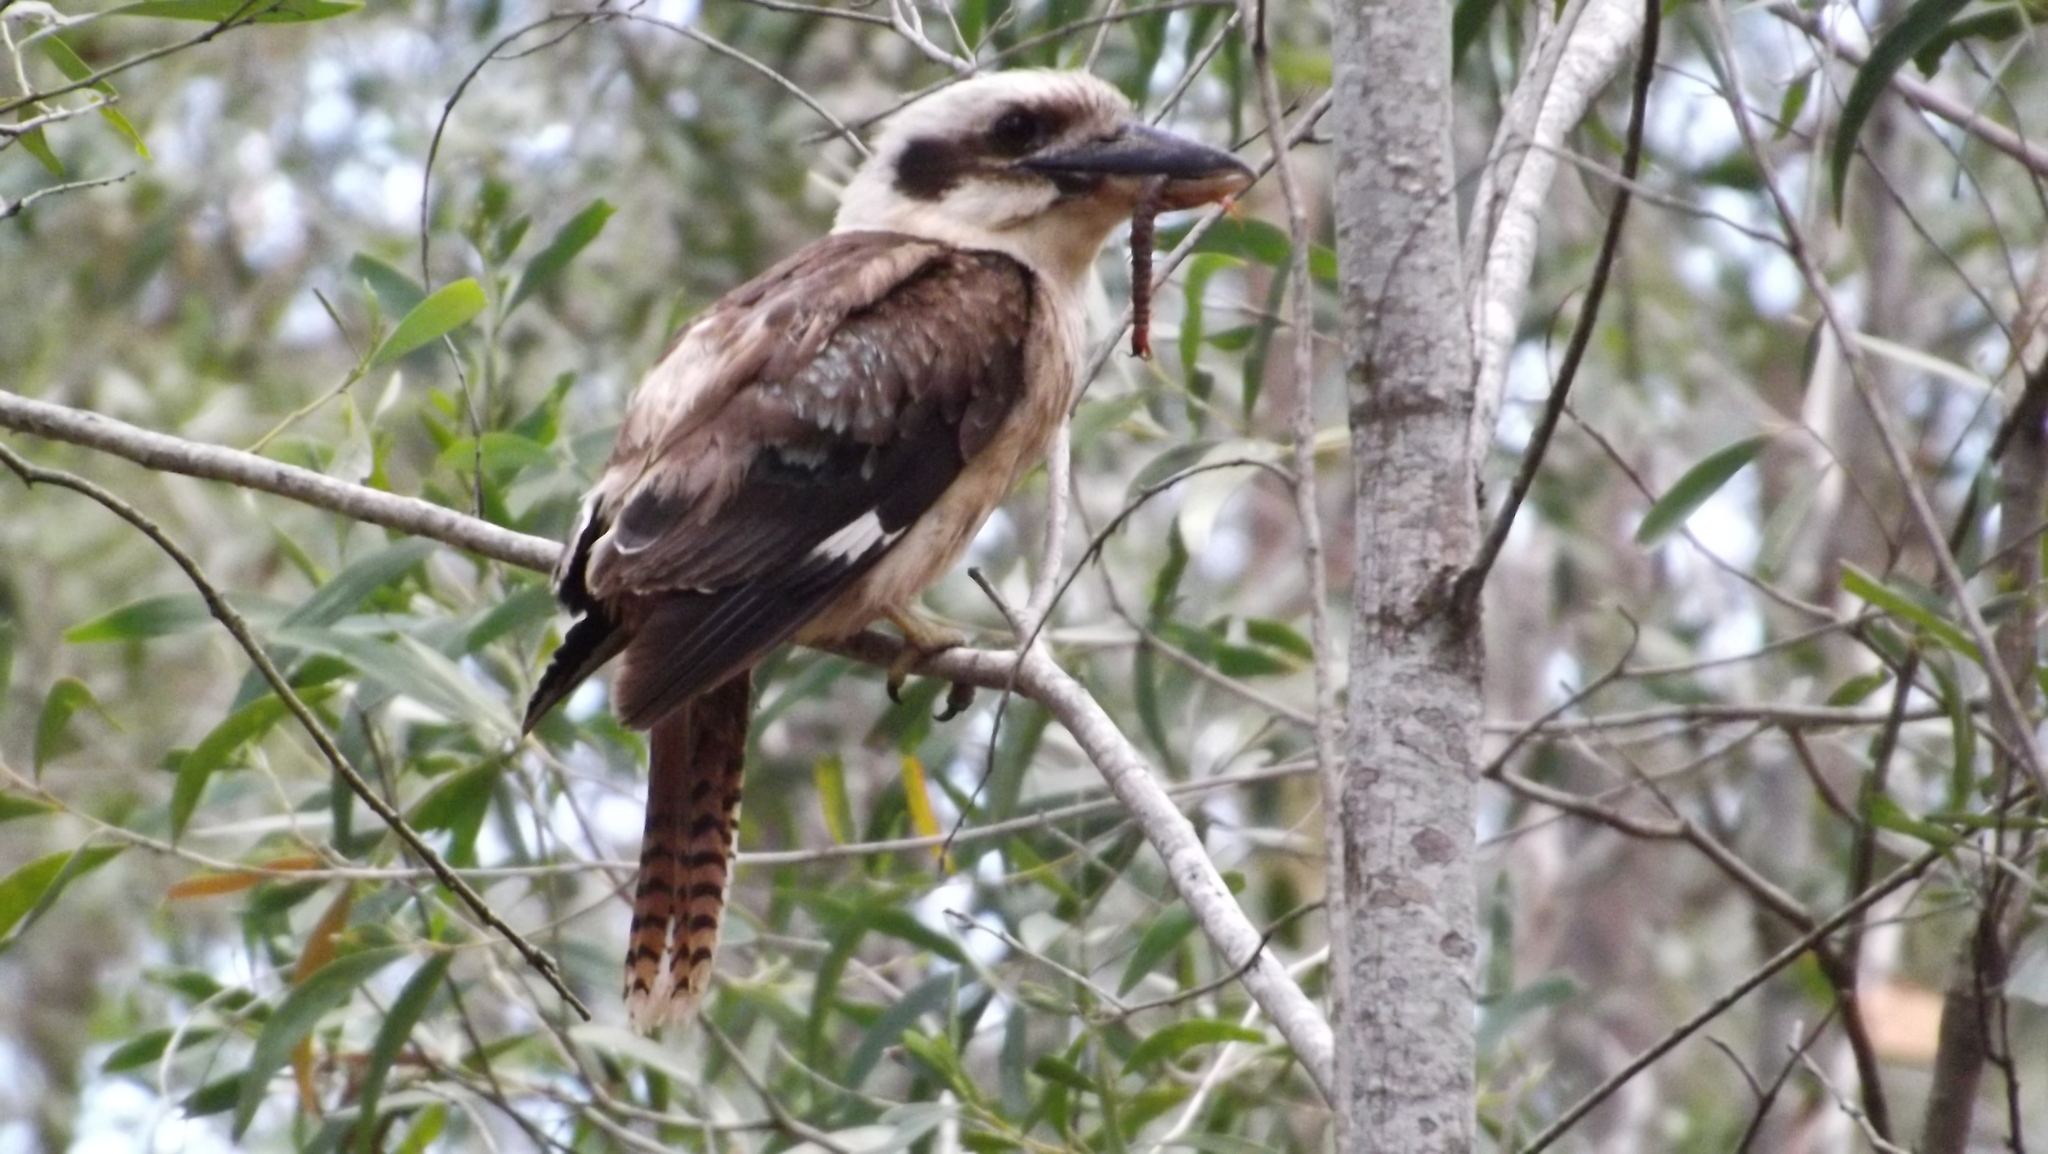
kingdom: Animalia
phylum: Chordata
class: Aves
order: Coraciiformes
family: Alcedinidae
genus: Dacelo
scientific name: Dacelo novaeguineae
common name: Laughing kookaburra
